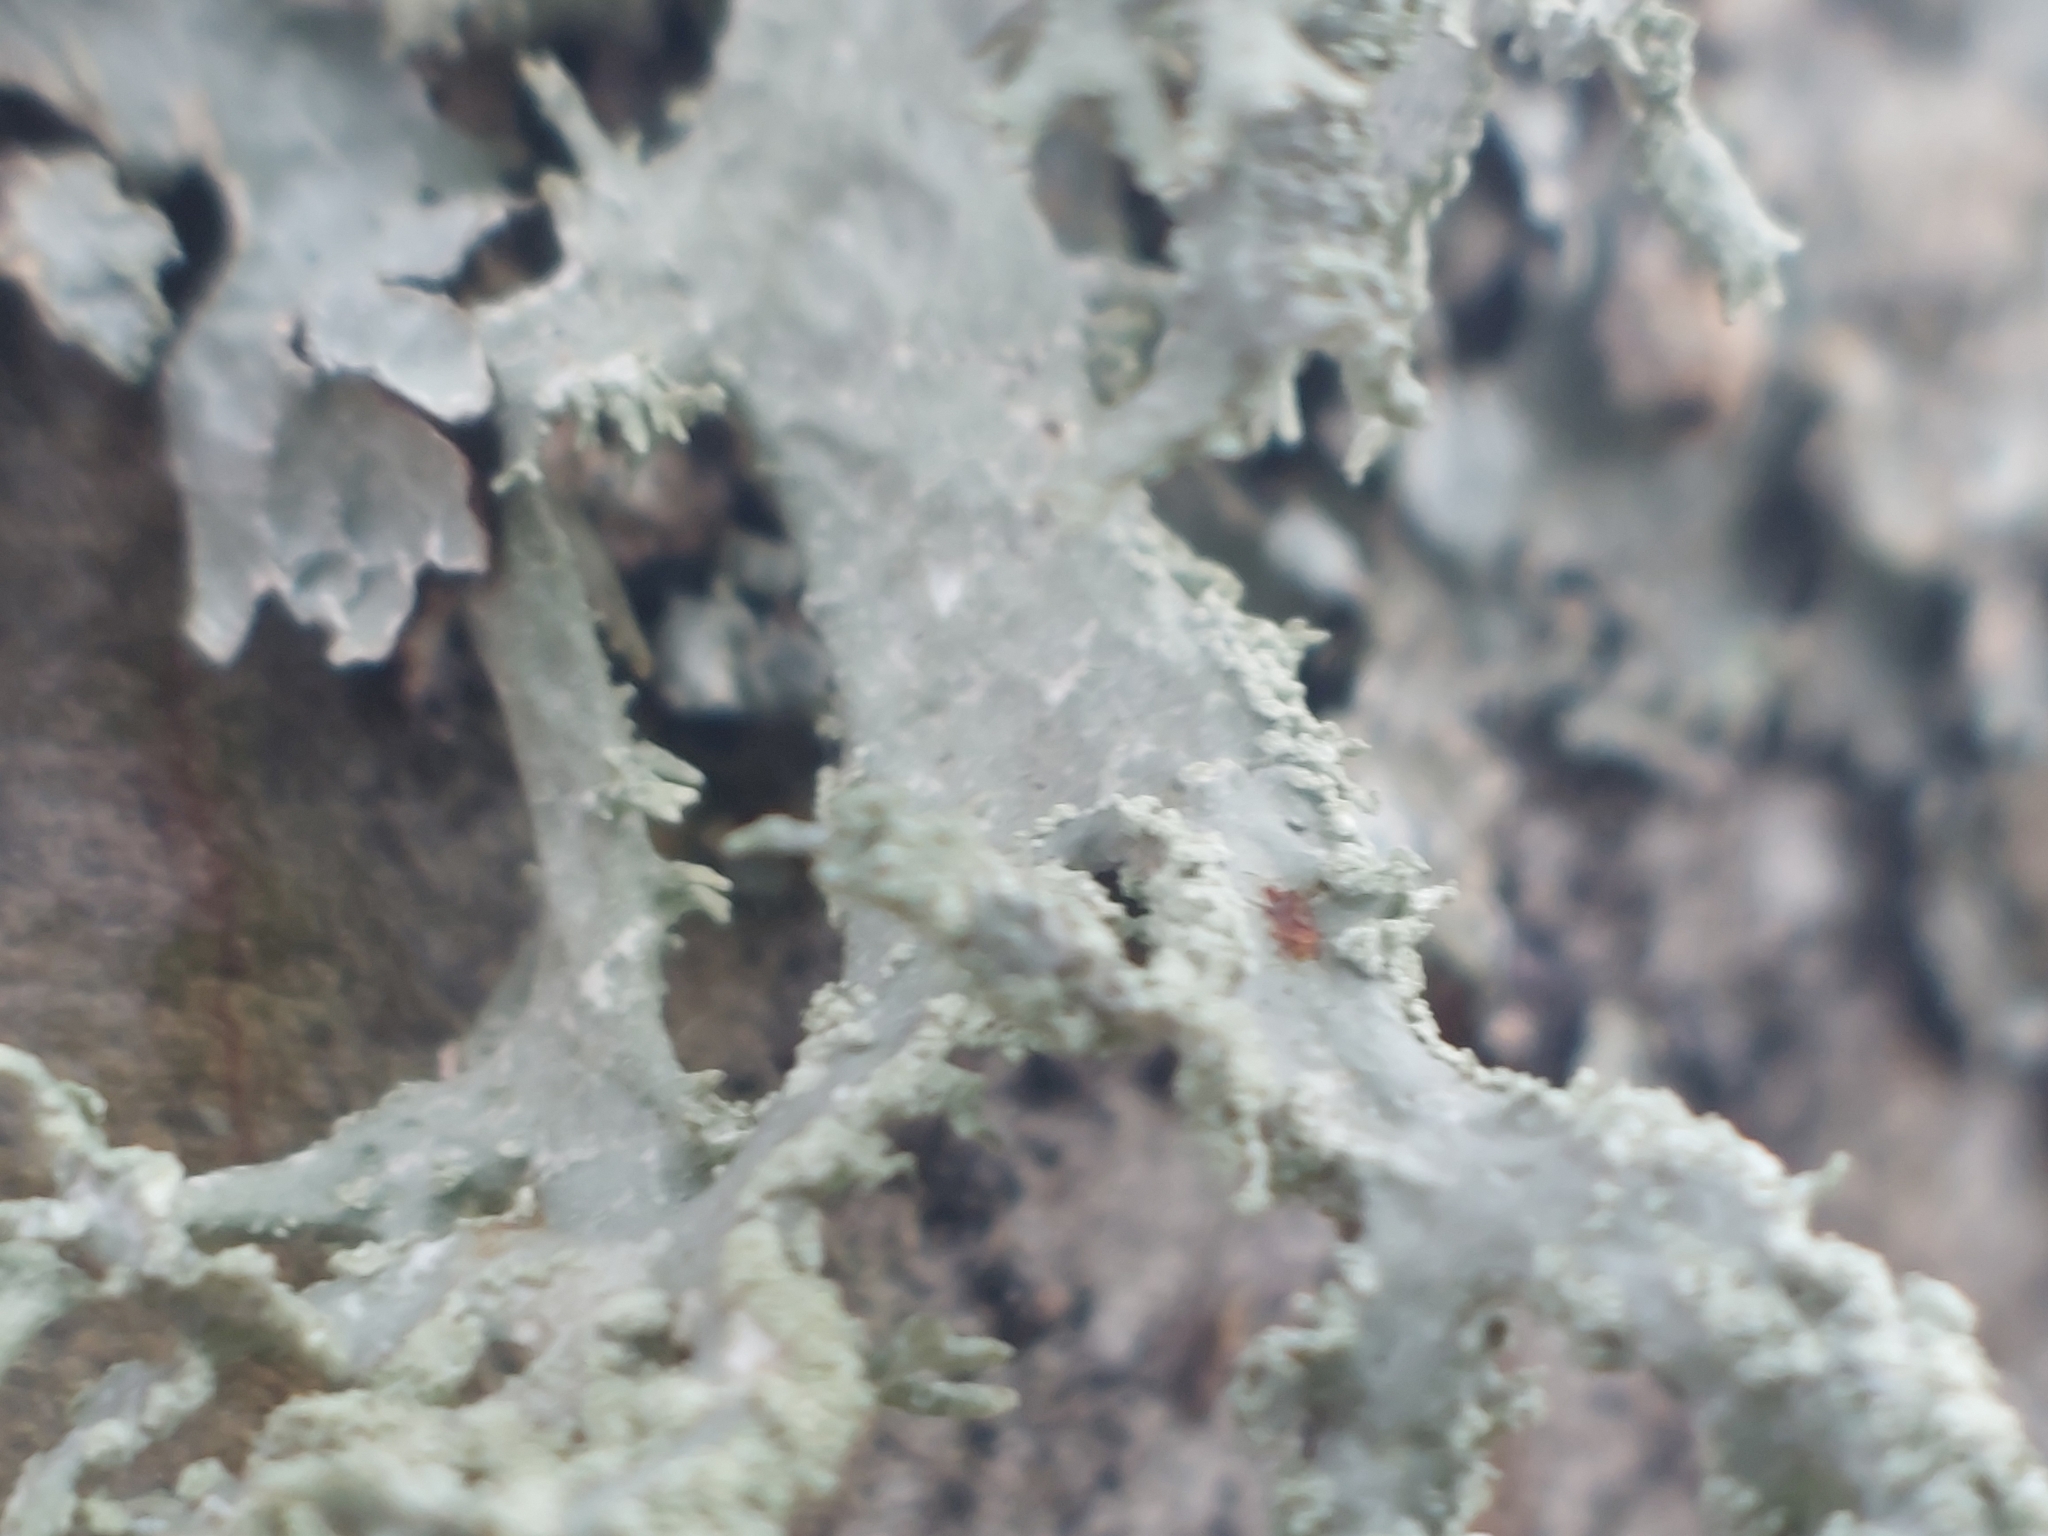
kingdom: Fungi
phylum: Ascomycota
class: Lecanoromycetes
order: Lecanorales
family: Parmeliaceae
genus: Evernia
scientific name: Evernia prunastri
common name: Oak moss
